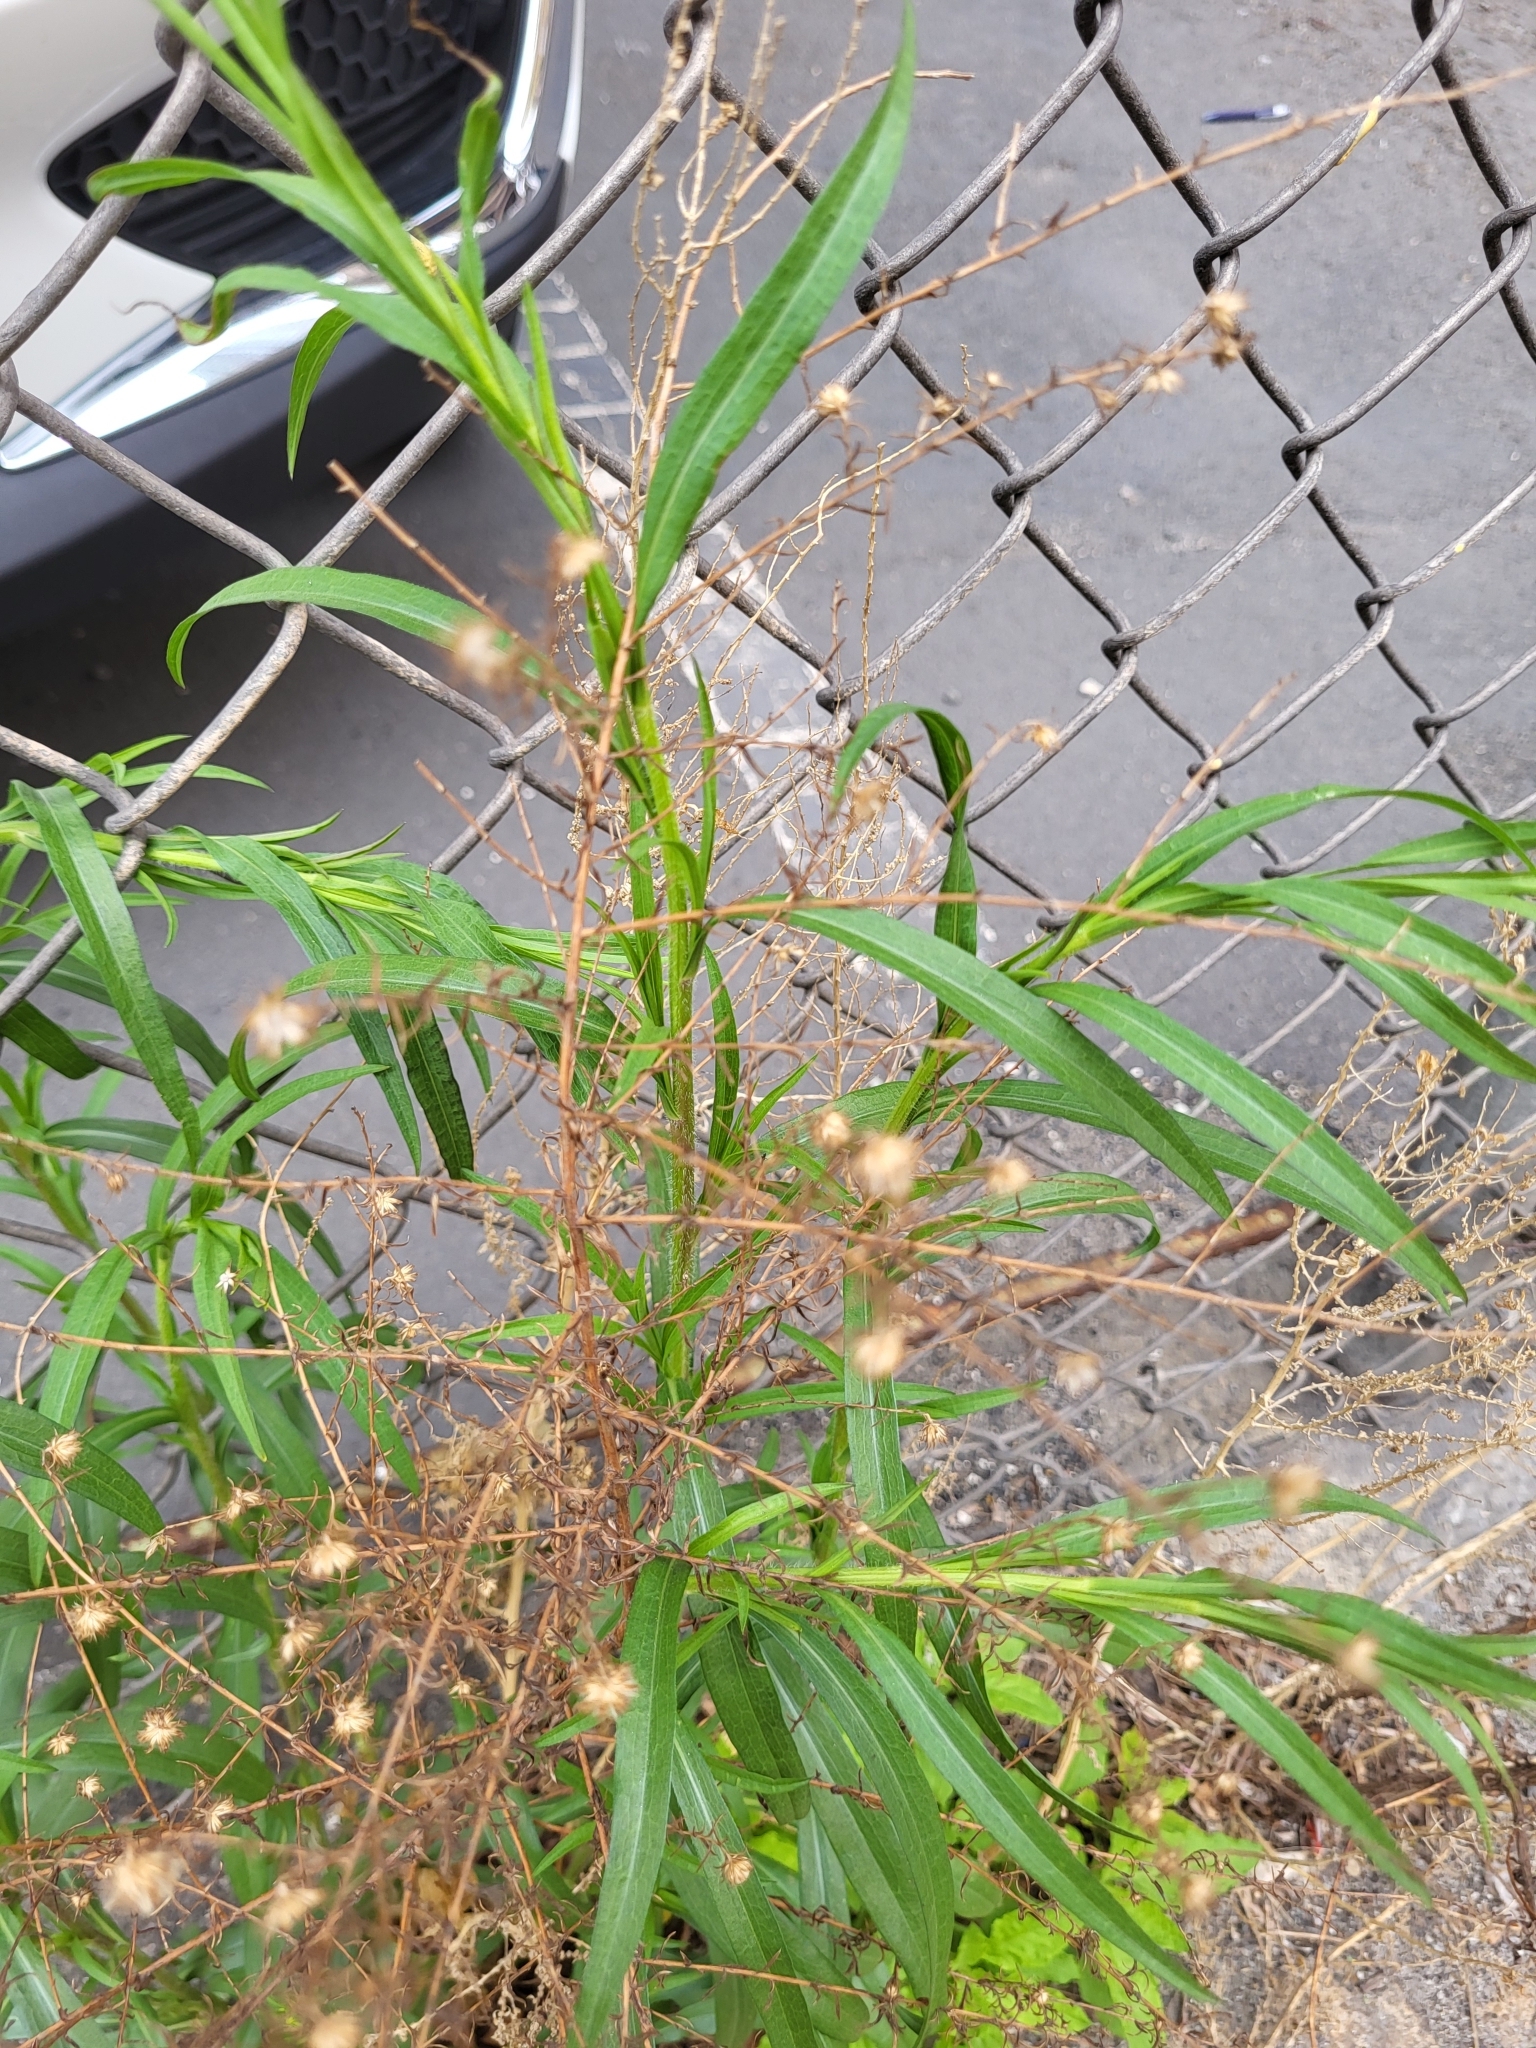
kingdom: Plantae
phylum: Tracheophyta
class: Magnoliopsida
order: Asterales
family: Asteraceae
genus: Symphyotrichum
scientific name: Symphyotrichum pilosum
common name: Awl aster
